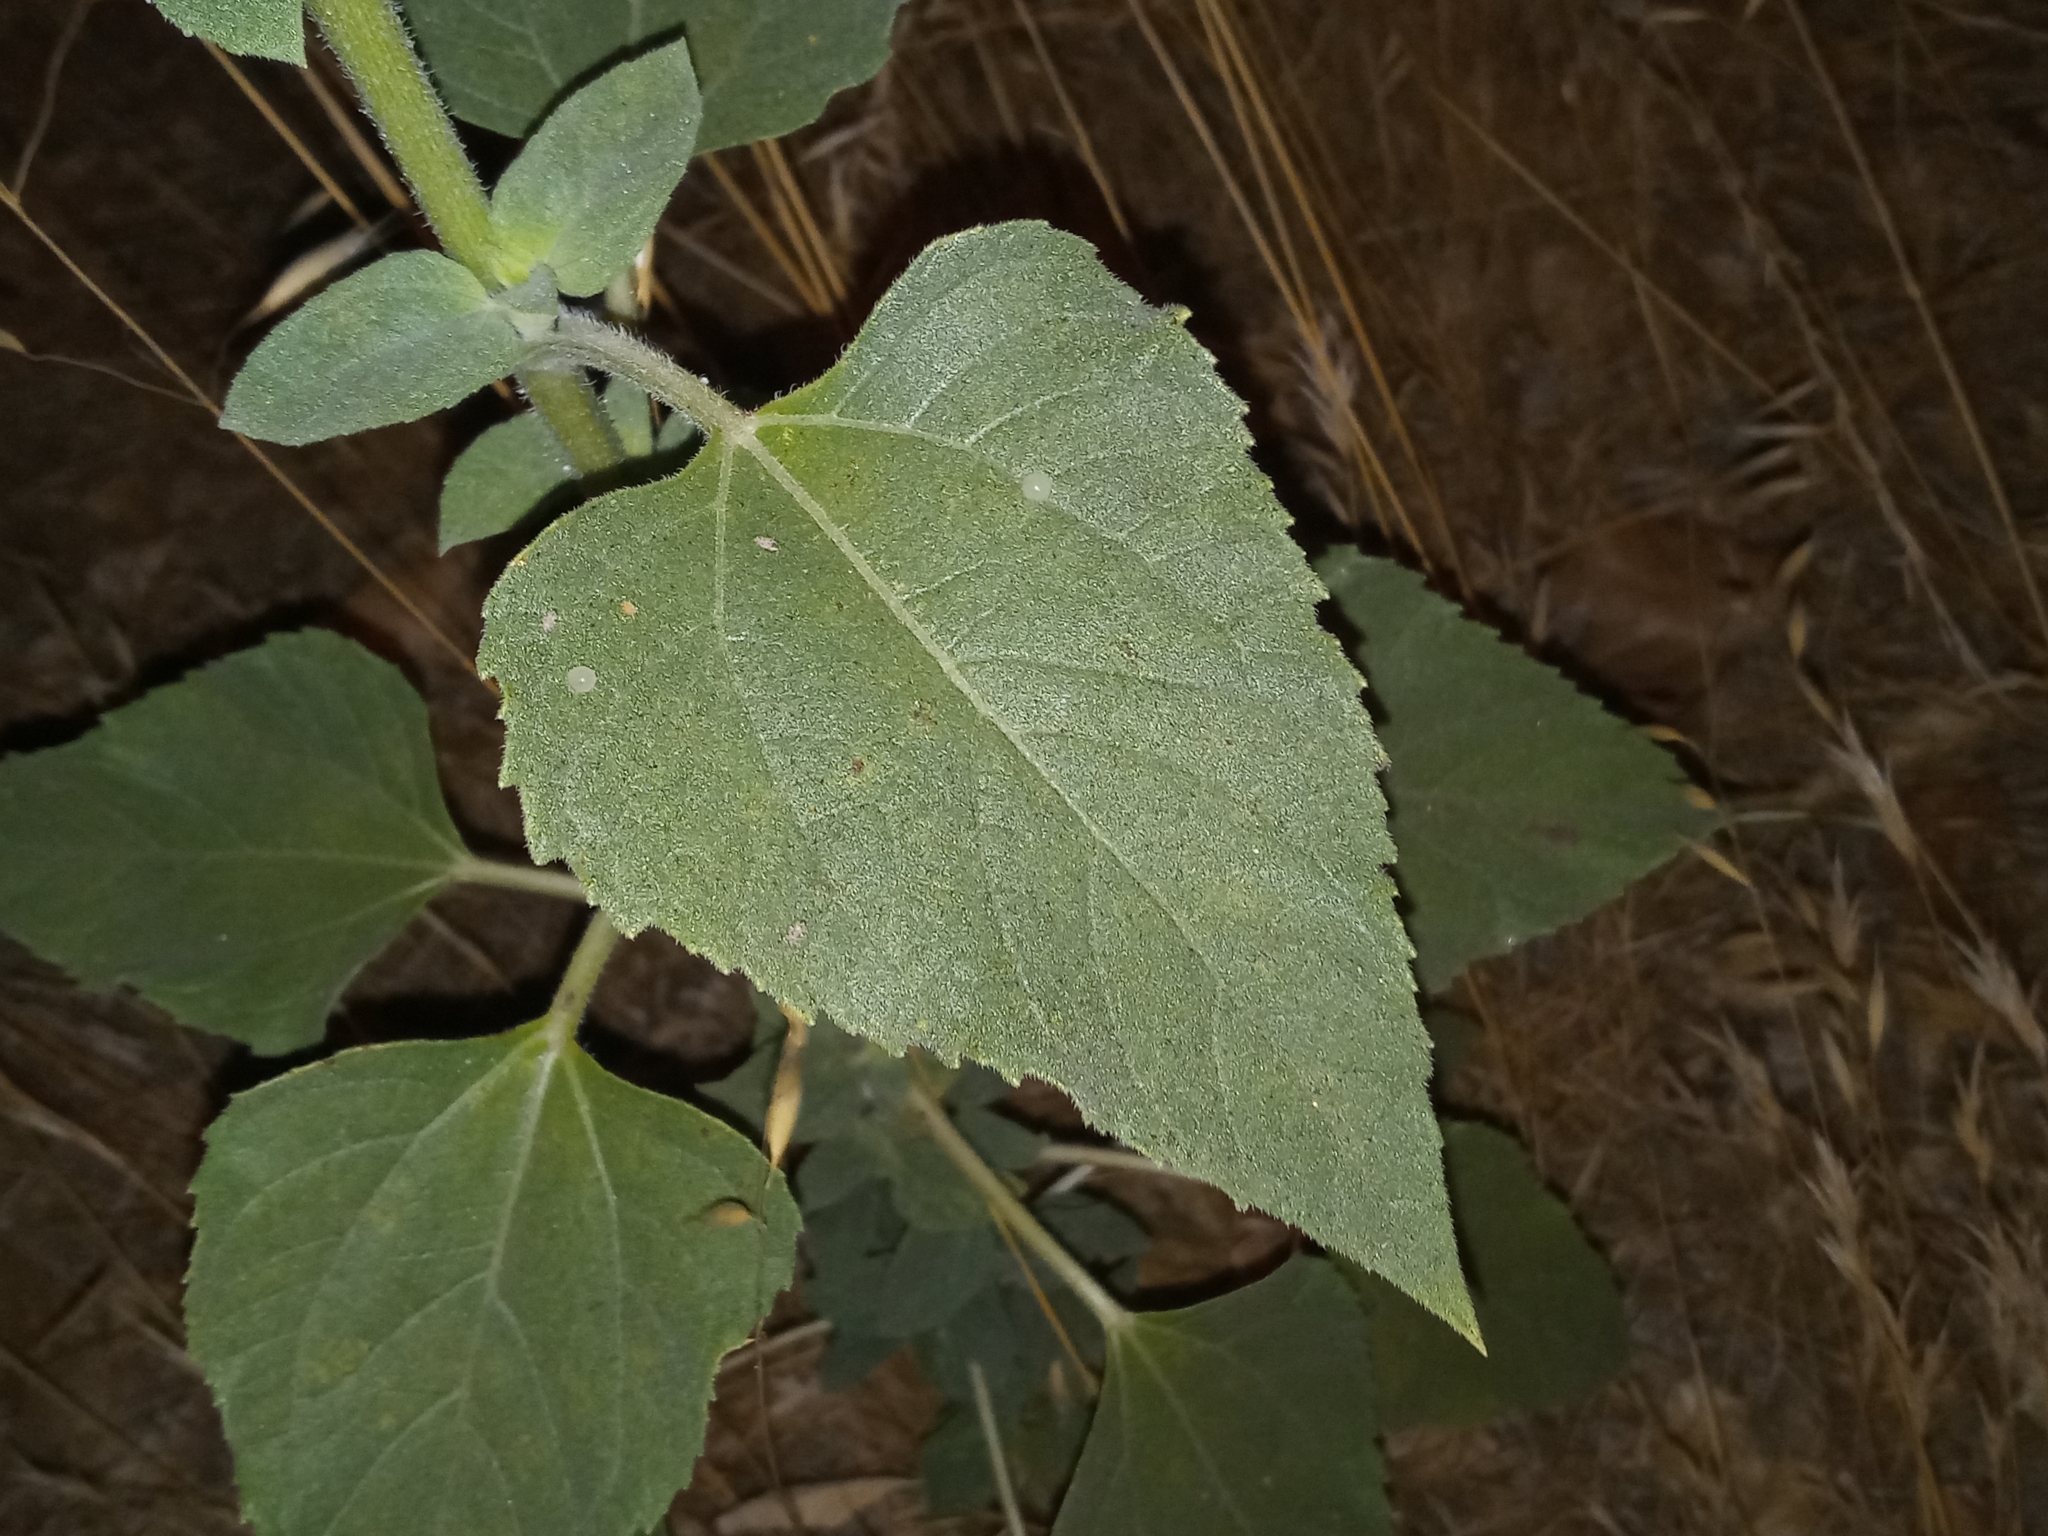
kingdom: Plantae
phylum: Tracheophyta
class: Magnoliopsida
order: Asterales
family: Asteraceae
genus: Helianthus
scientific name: Helianthus annuus
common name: Sunflower
